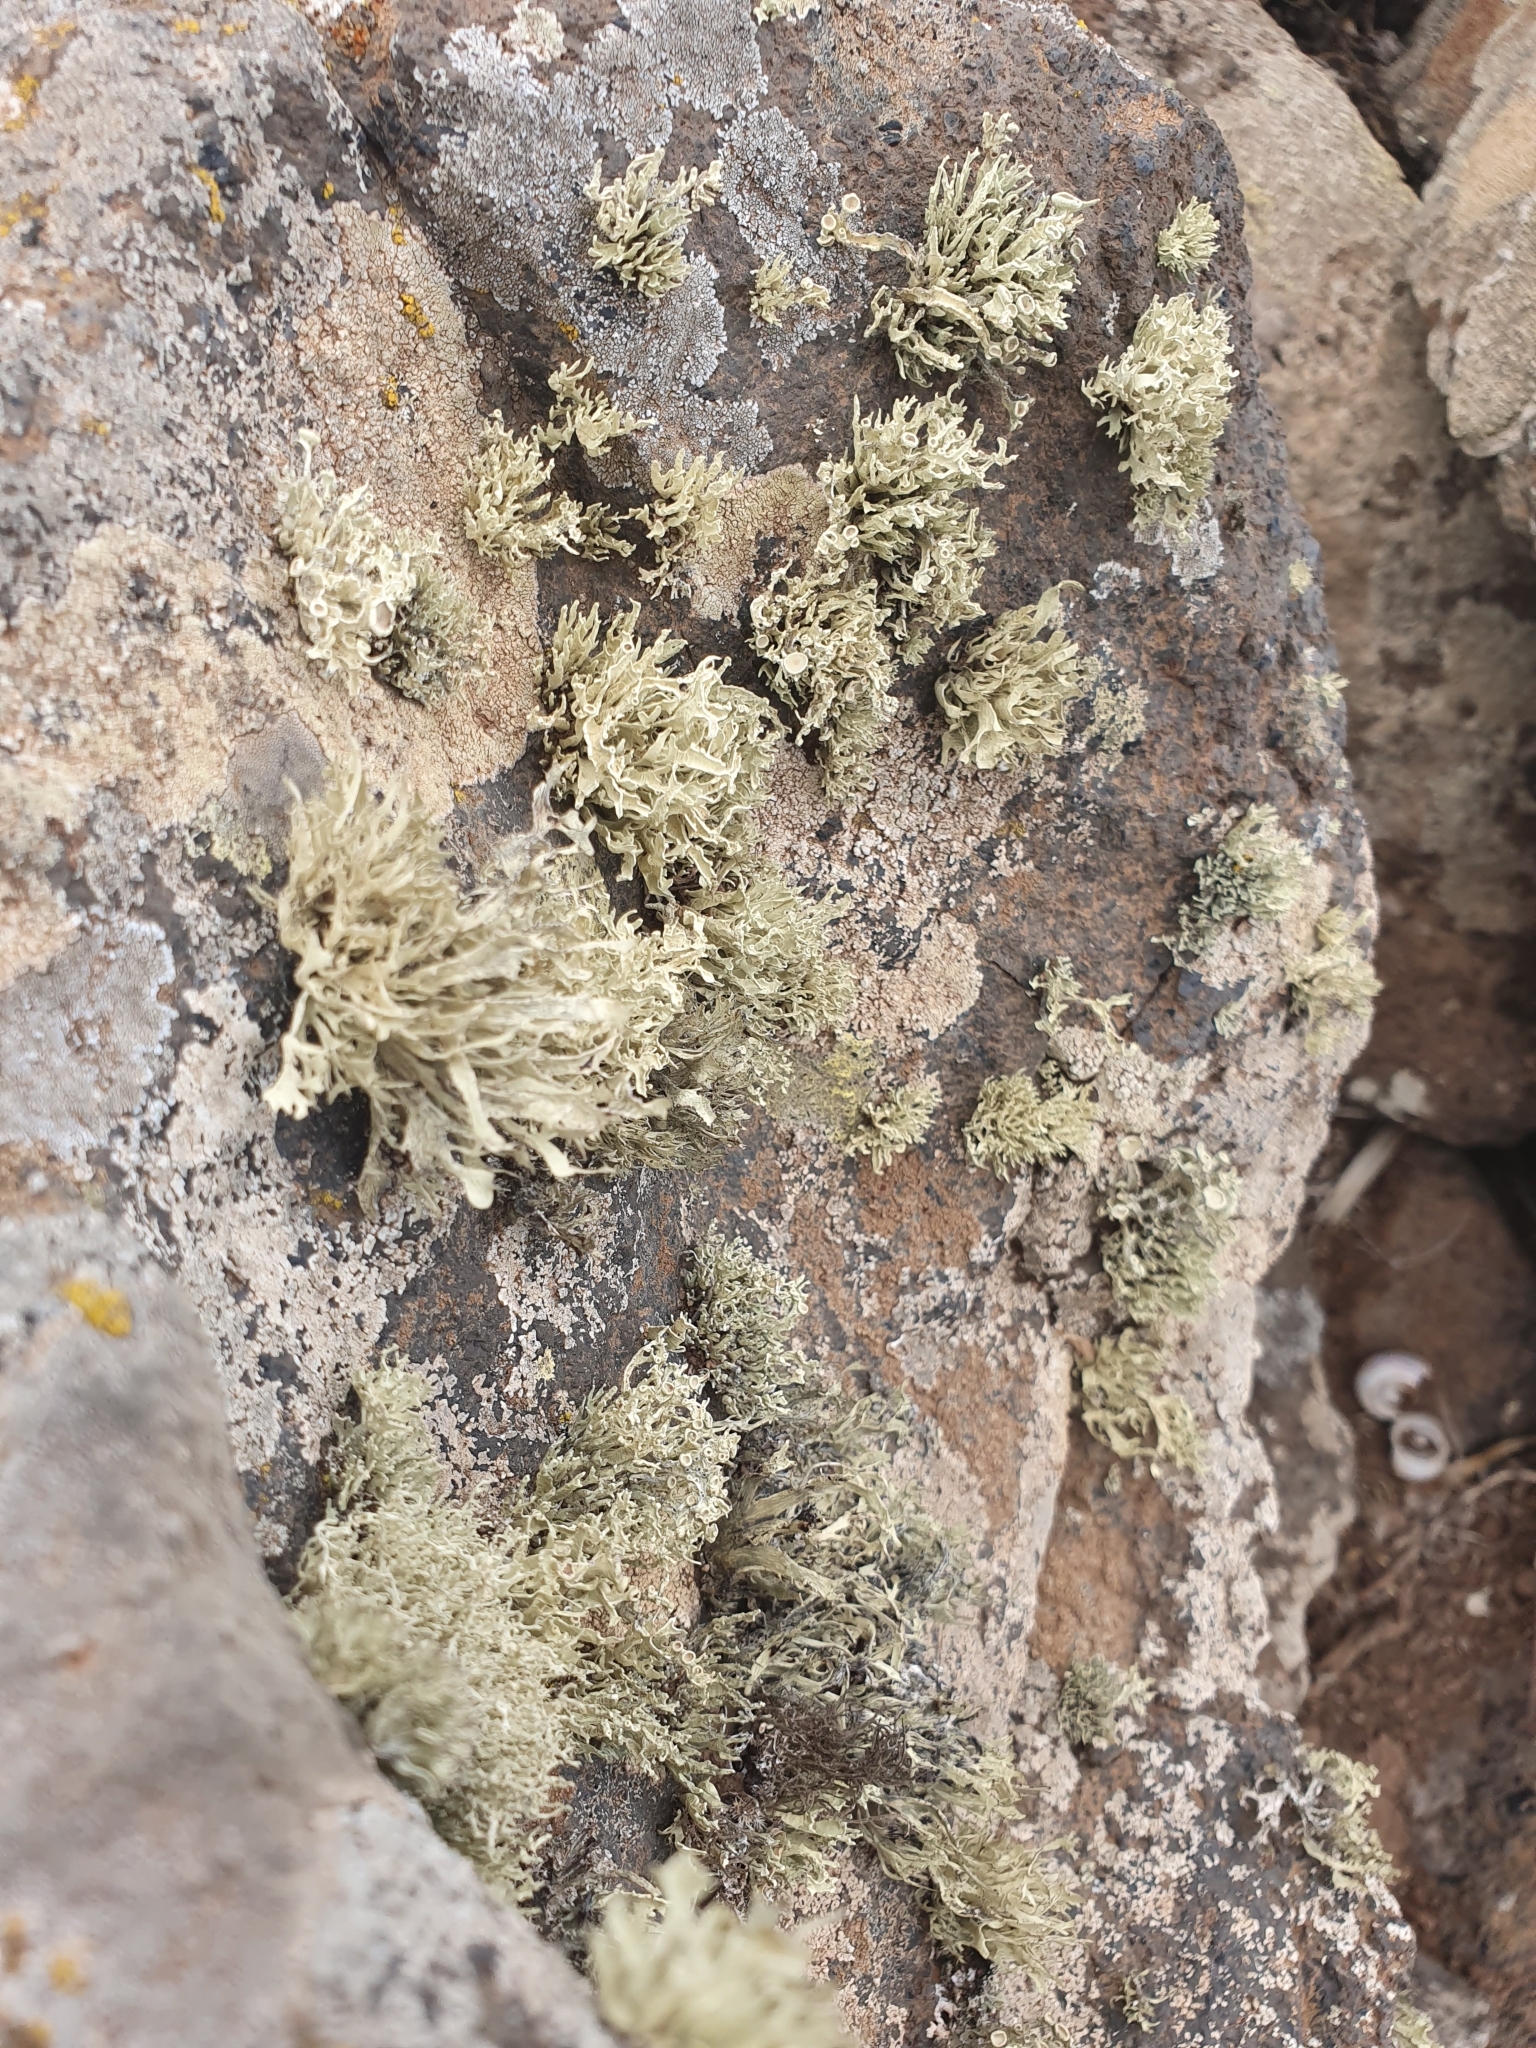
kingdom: Fungi
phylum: Ascomycota
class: Lecanoromycetes
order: Lecanorales
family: Ramalinaceae
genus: Ramalina
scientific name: Ramalina fastigiata
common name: Dotted ribbon lichen
